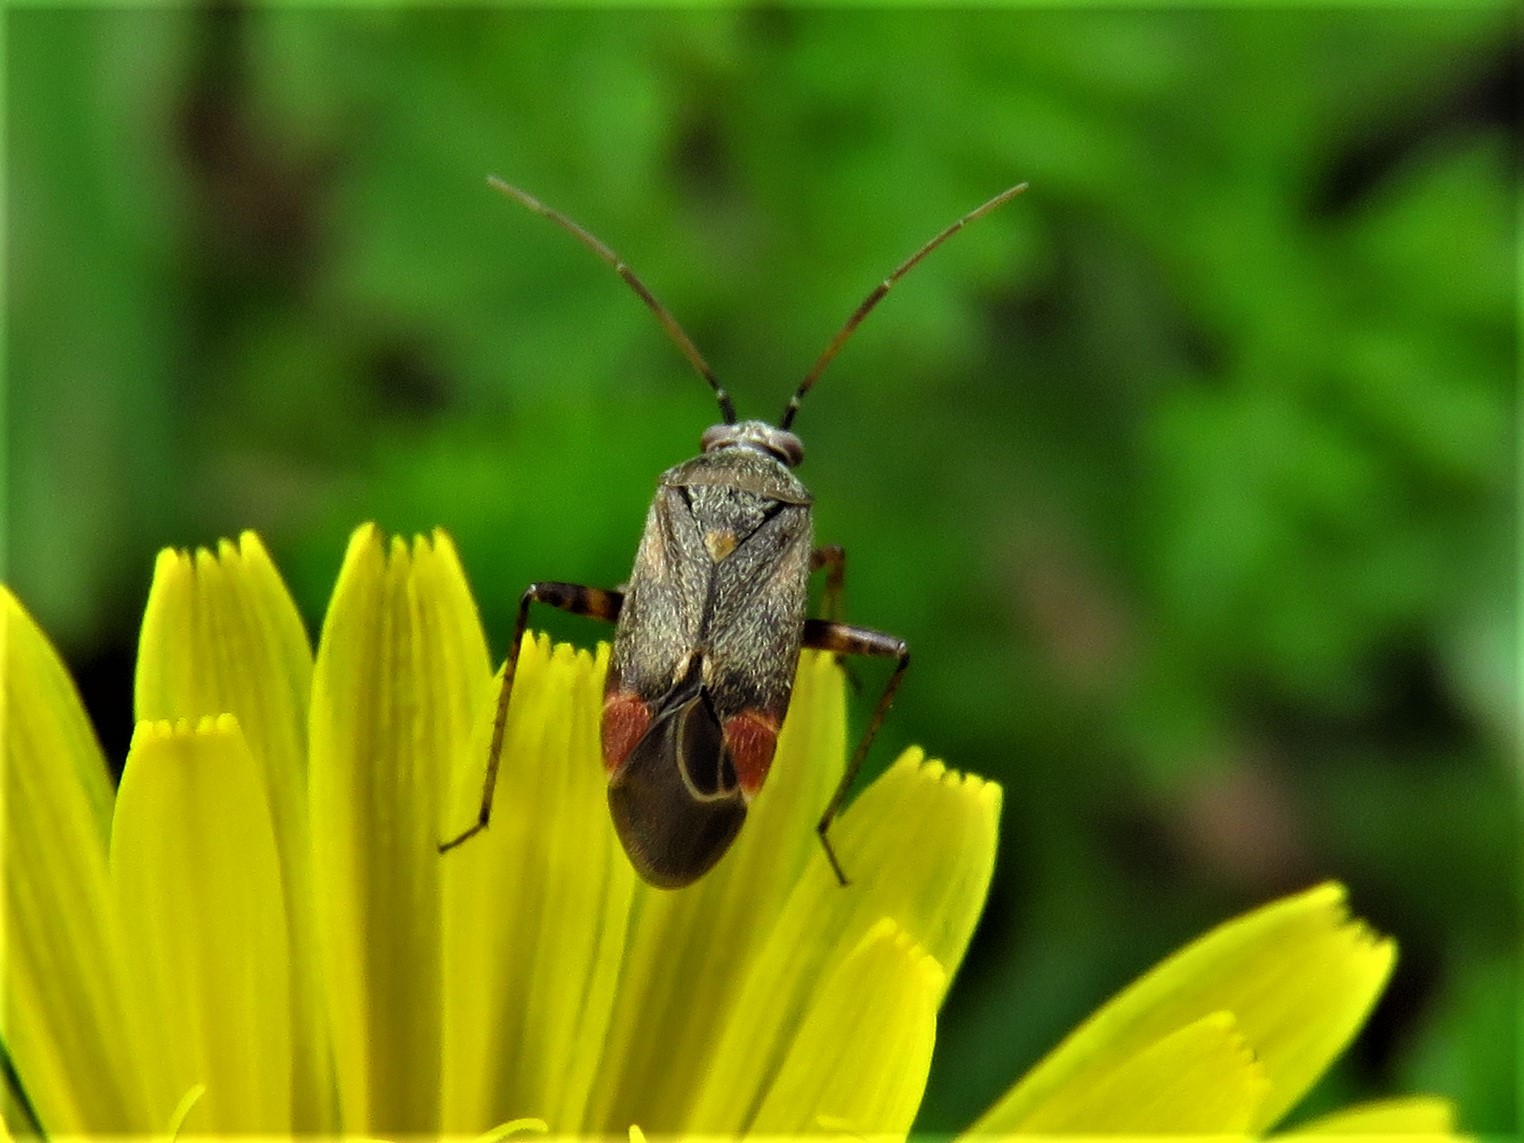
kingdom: Animalia
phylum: Arthropoda
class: Insecta
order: Hemiptera
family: Miridae
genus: Polymerus
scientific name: Polymerus basalis
